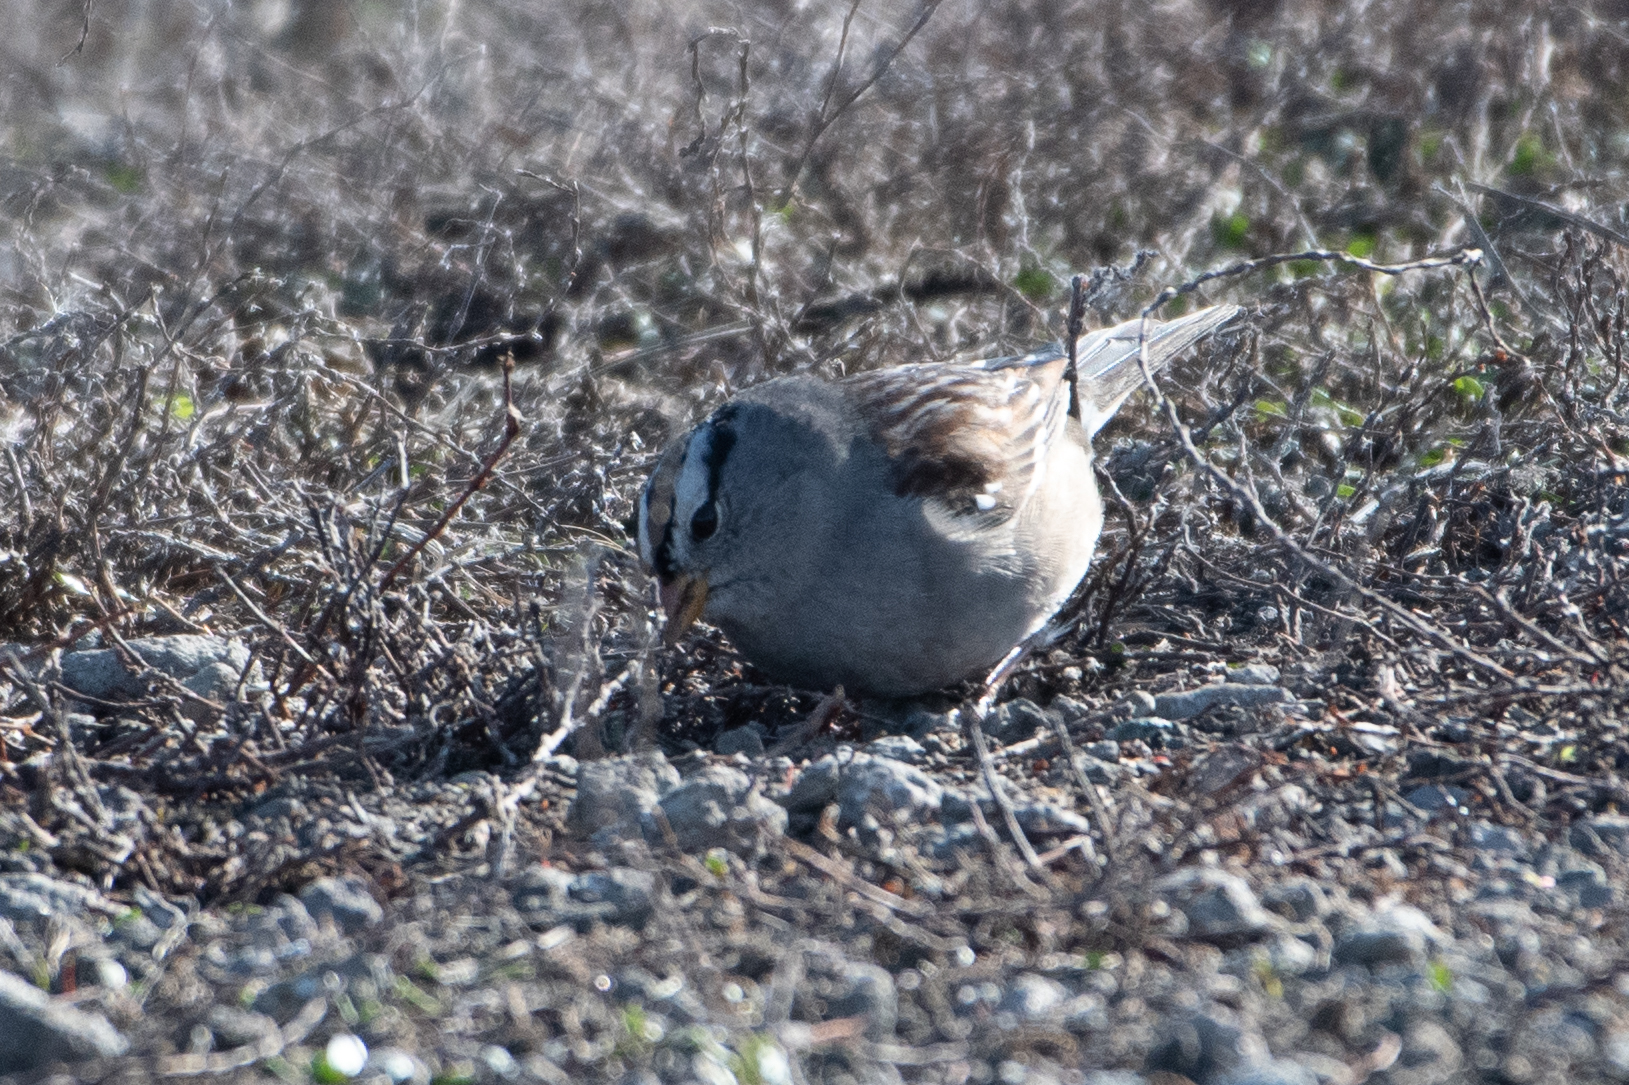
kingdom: Animalia
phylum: Chordata
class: Aves
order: Passeriformes
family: Passerellidae
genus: Zonotrichia
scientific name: Zonotrichia leucophrys
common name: White-crowned sparrow
